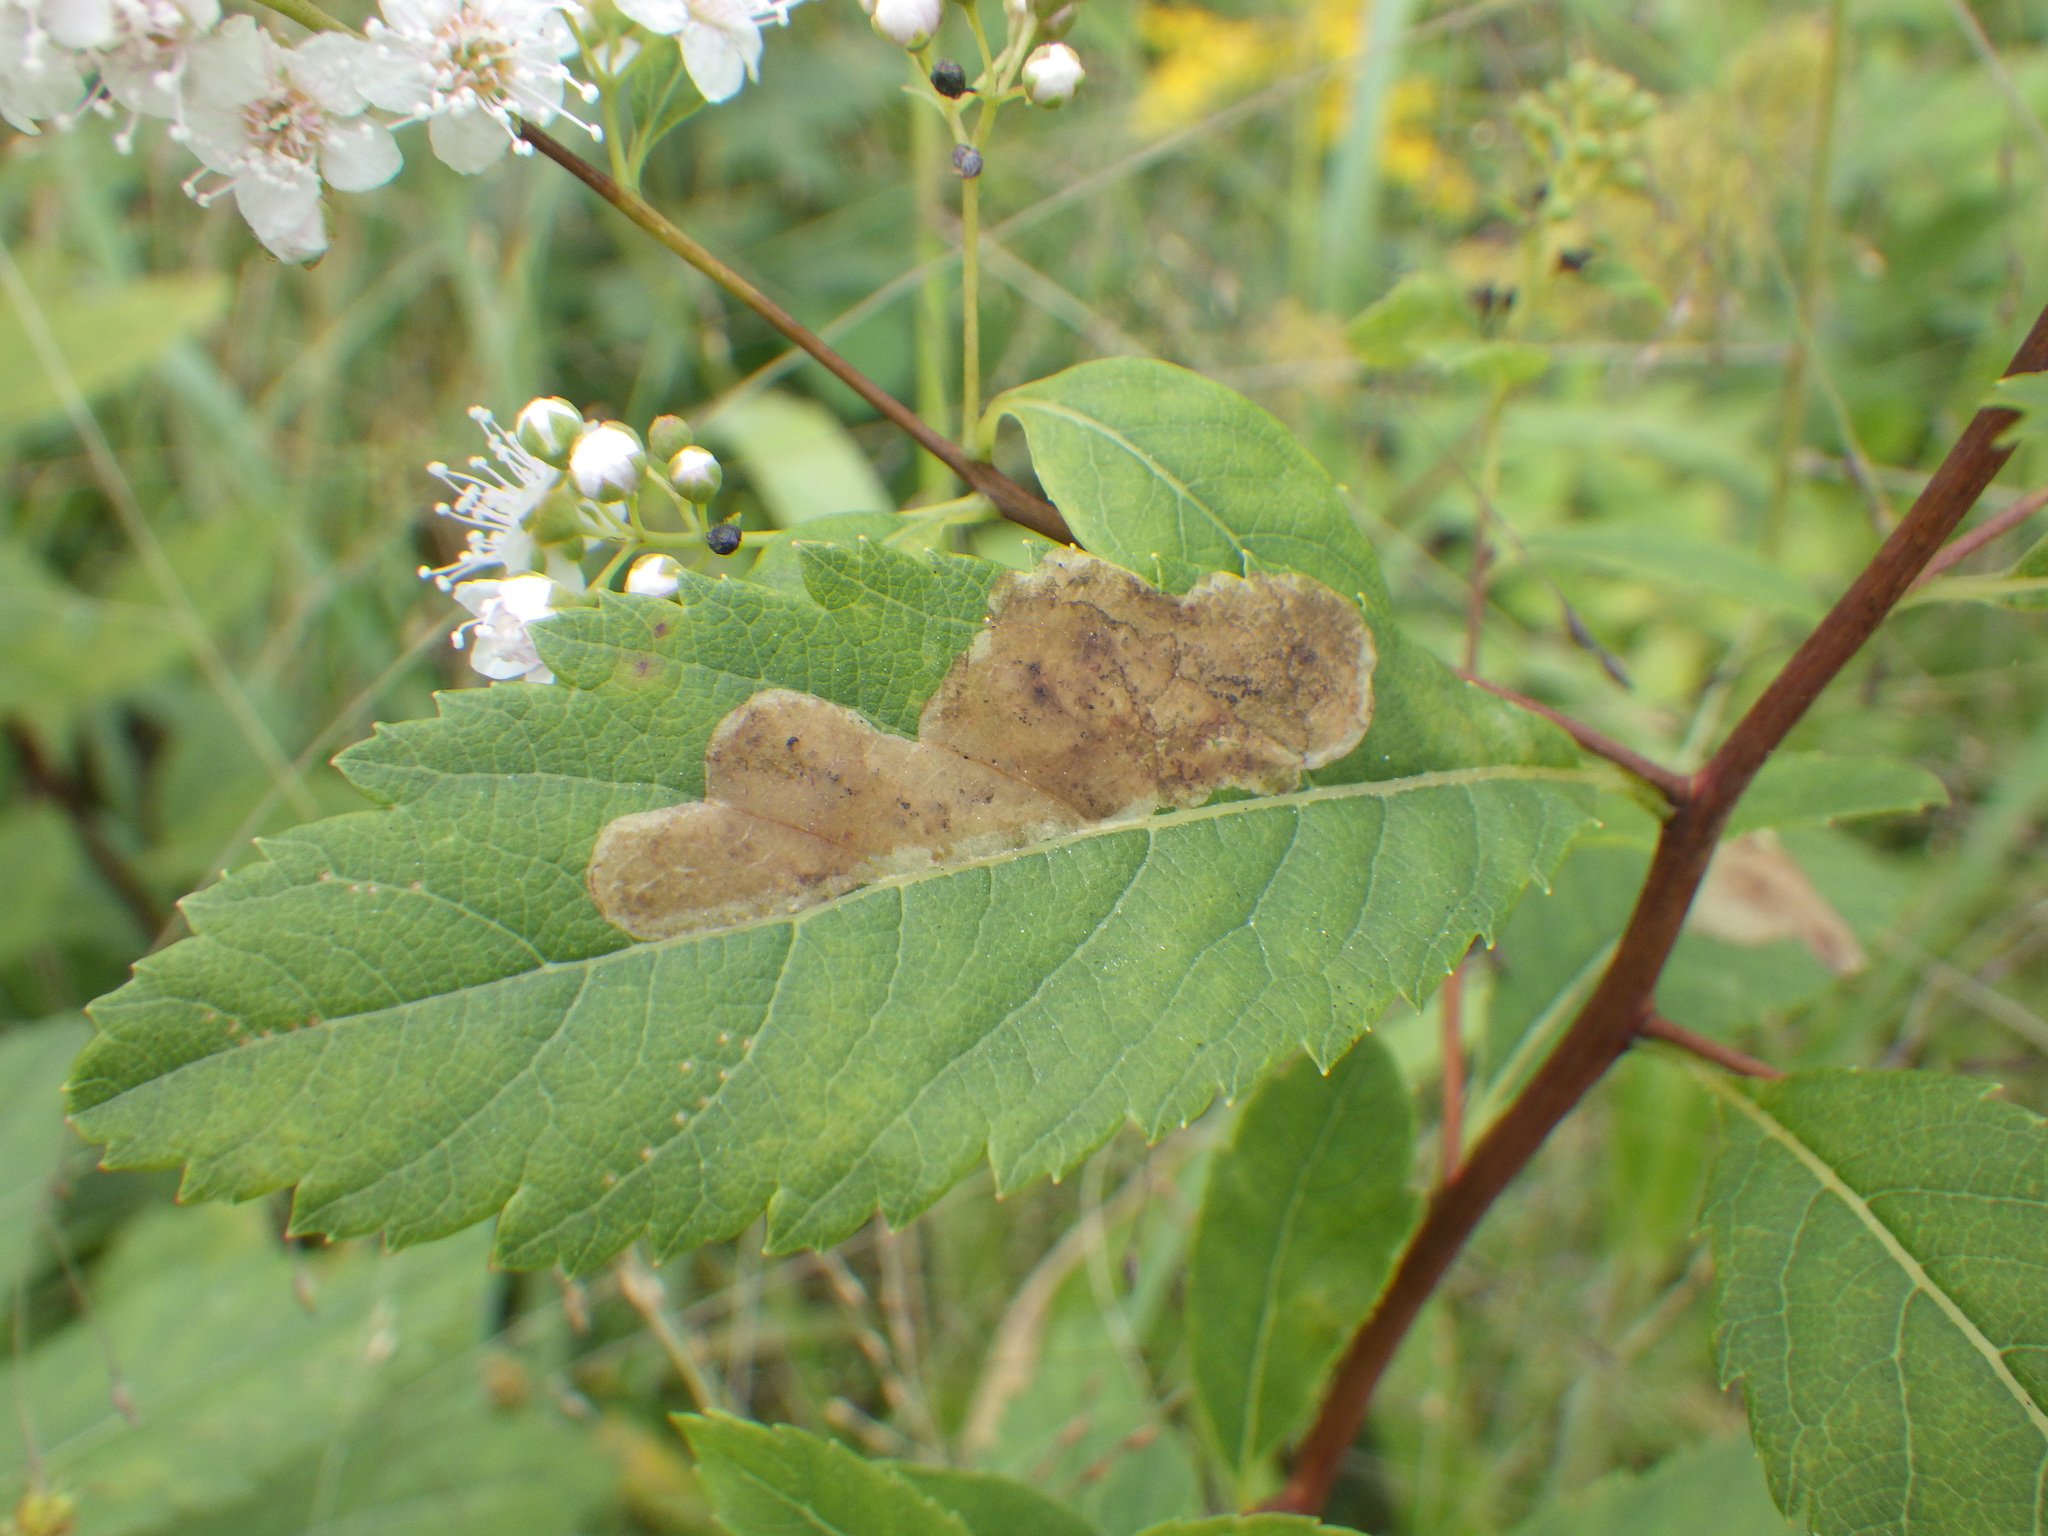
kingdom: Animalia
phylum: Arthropoda
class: Insecta
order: Diptera
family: Agromyzidae
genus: Agromyza
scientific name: Agromyza valdorensis
